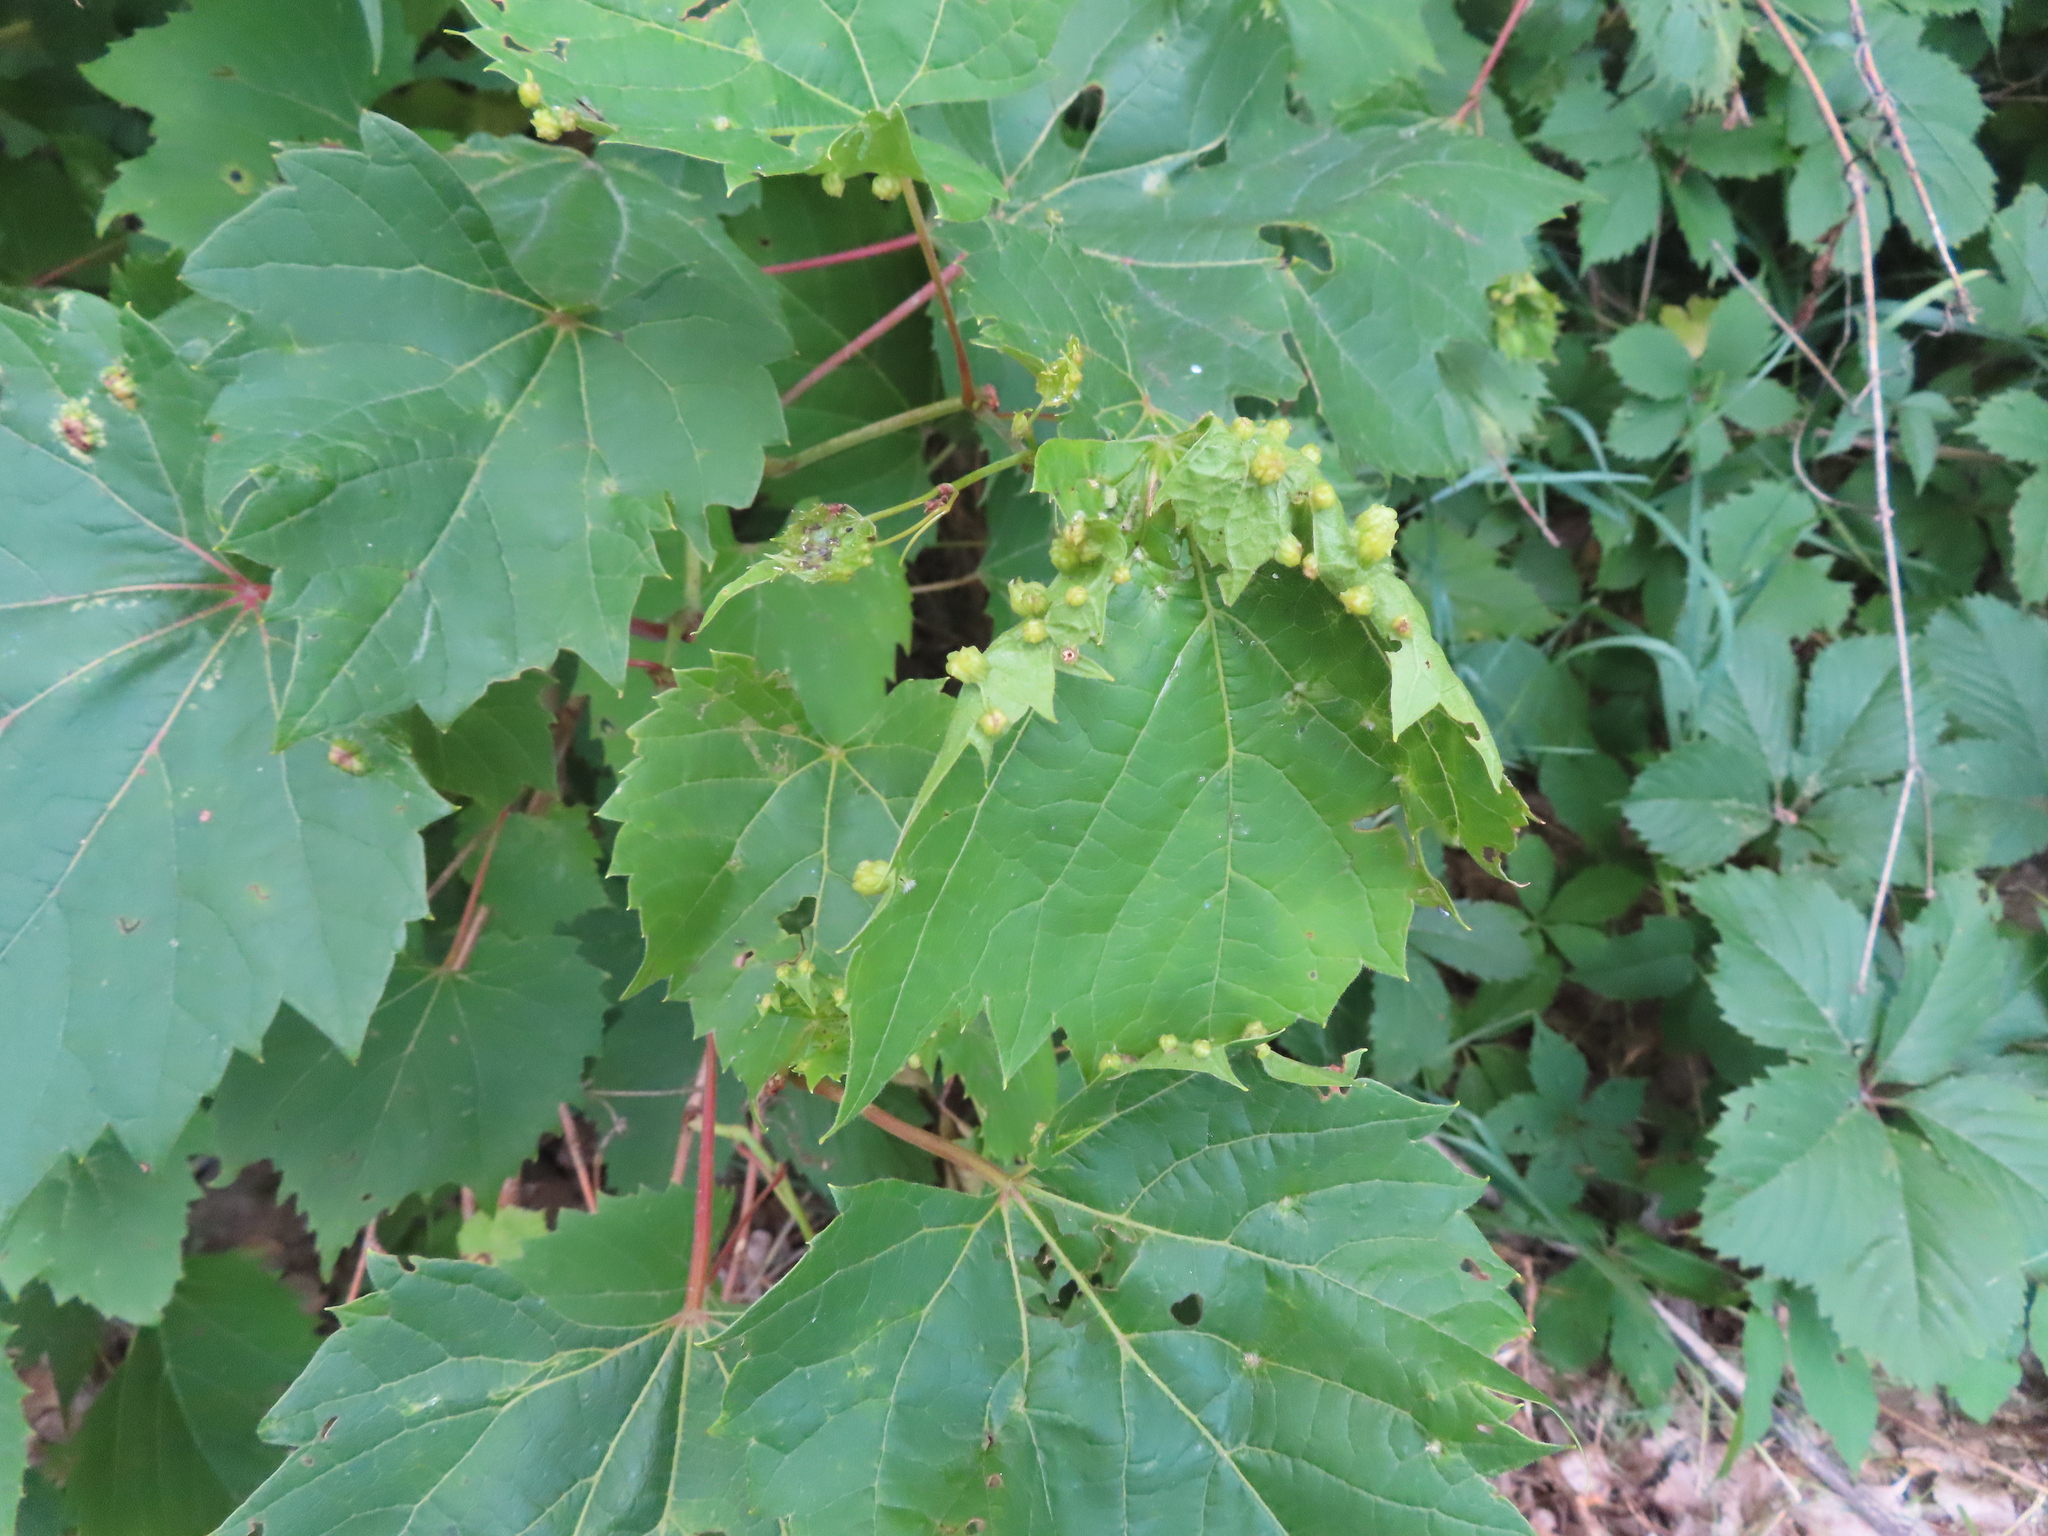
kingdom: Animalia
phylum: Arthropoda
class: Insecta
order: Hemiptera
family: Phylloxeridae
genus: Daktulosphaira
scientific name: Daktulosphaira vitifoliae
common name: Grape phylloxera
